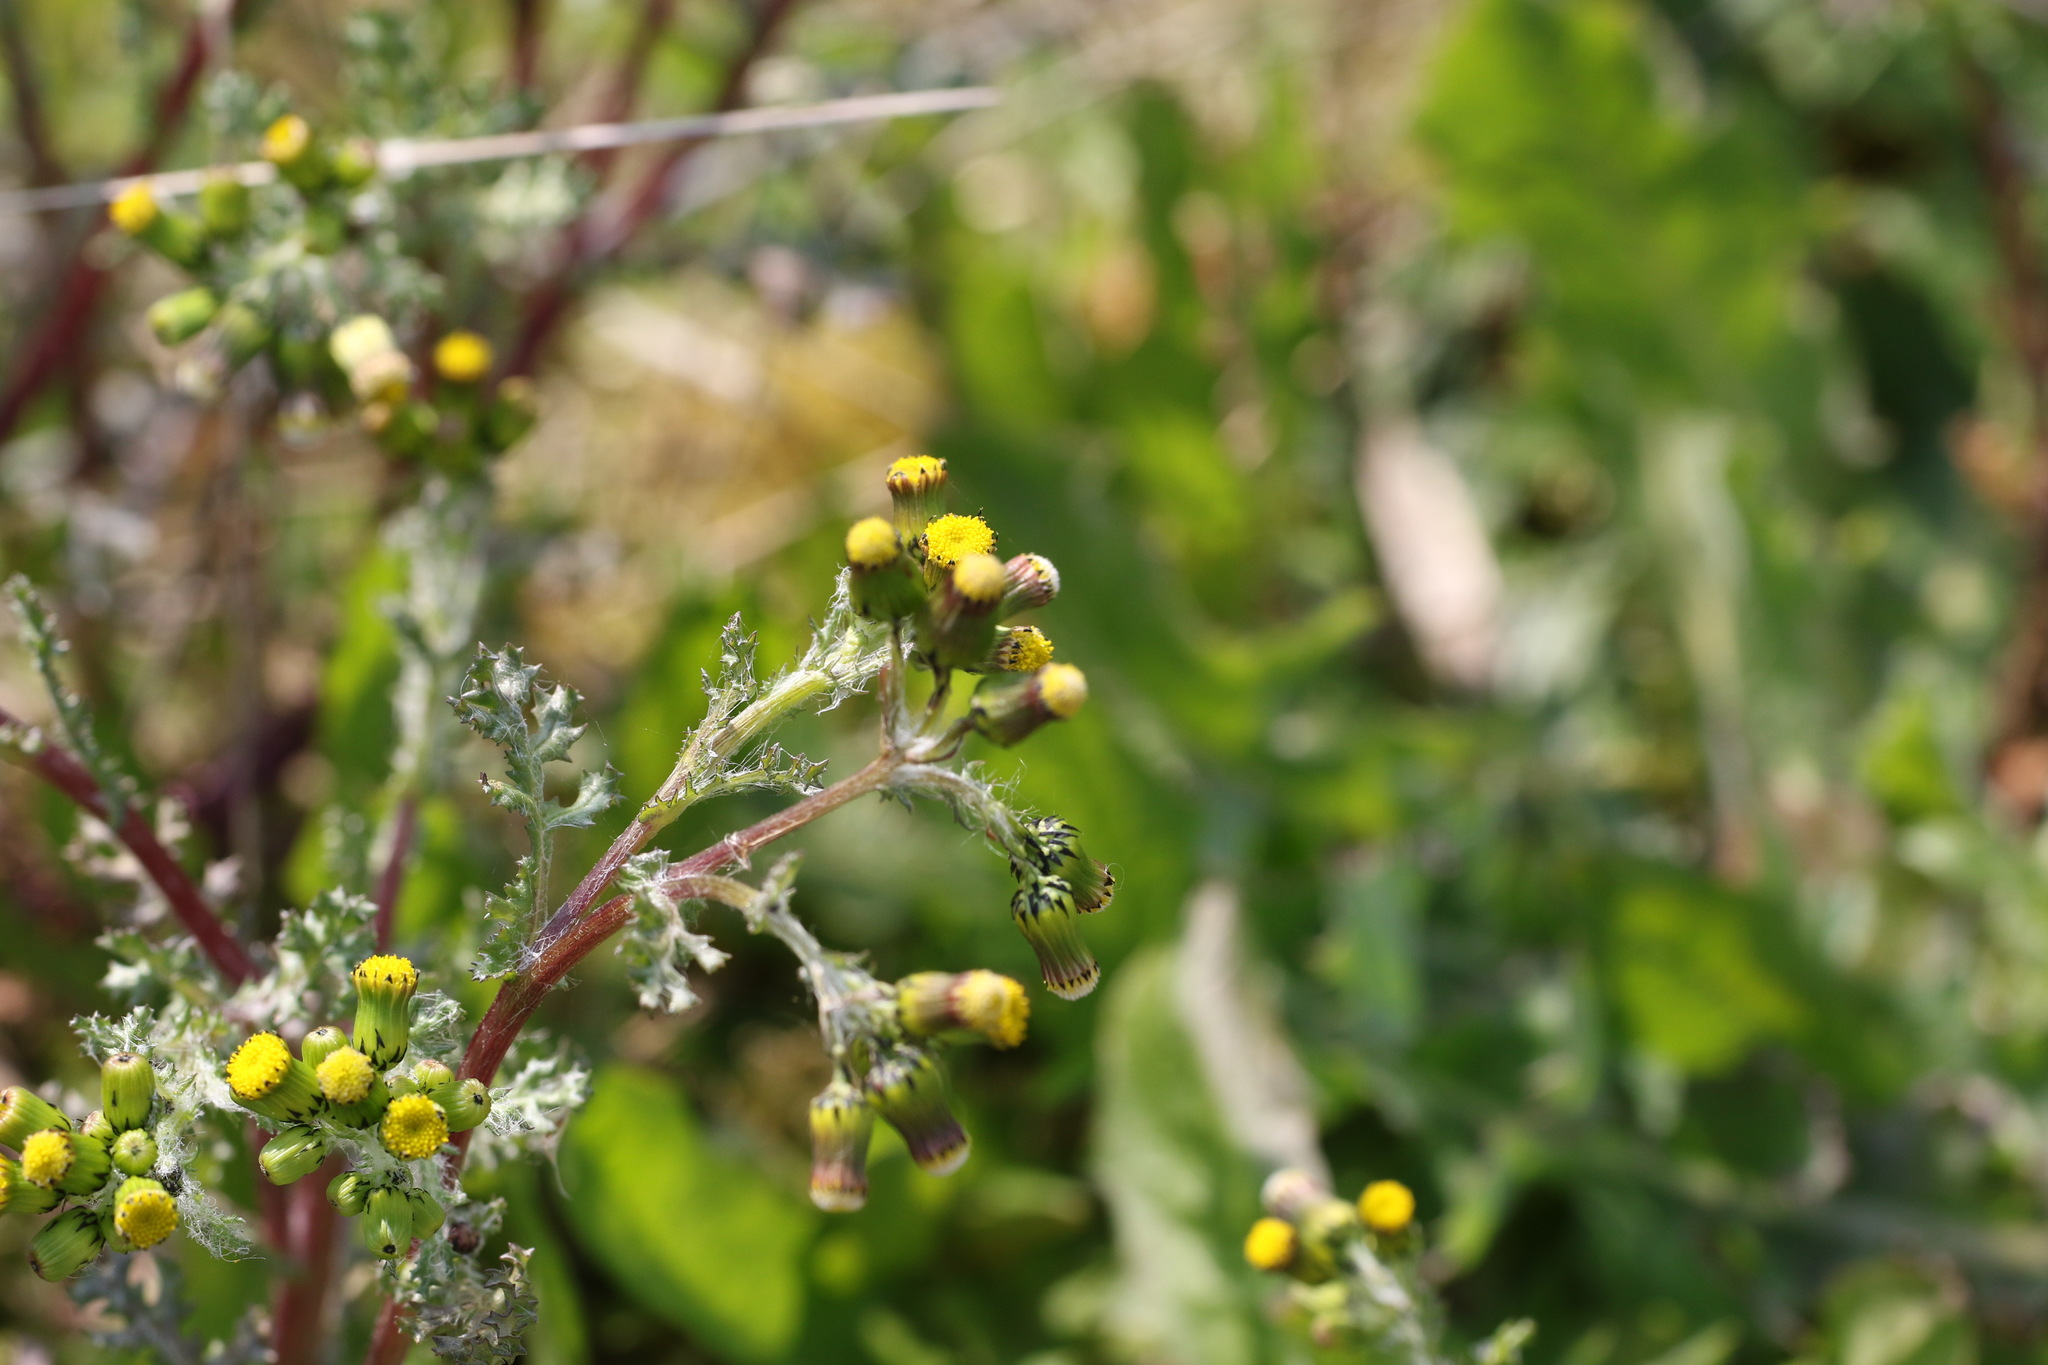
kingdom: Plantae
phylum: Tracheophyta
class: Magnoliopsida
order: Asterales
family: Asteraceae
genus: Senecio
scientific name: Senecio vulgaris
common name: Old-man-in-the-spring
